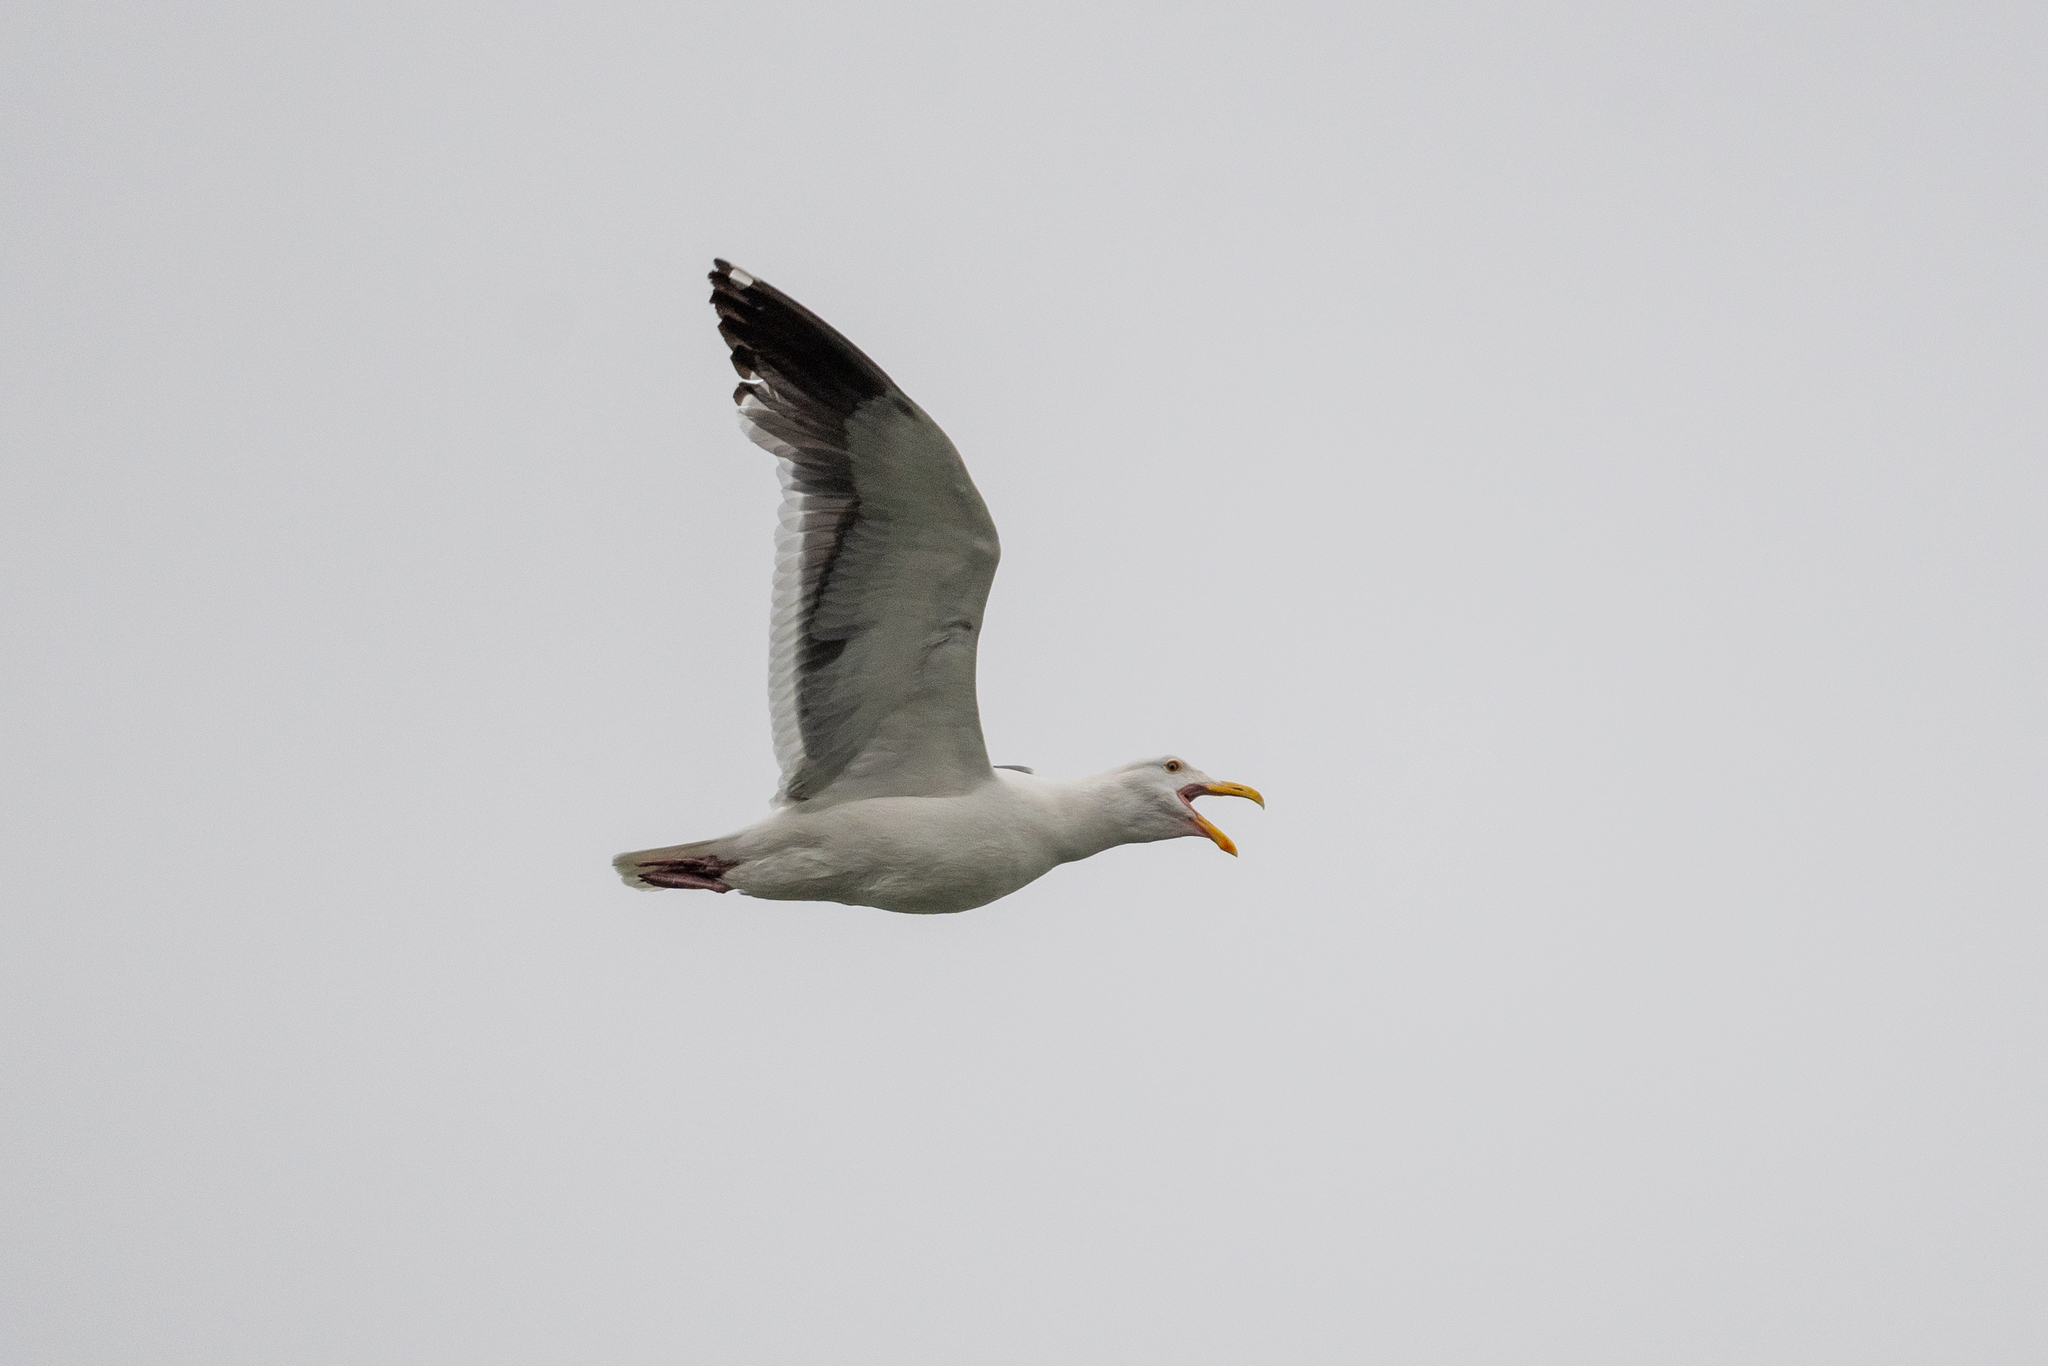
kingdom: Animalia
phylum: Chordata
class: Aves
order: Charadriiformes
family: Laridae
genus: Larus
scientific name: Larus occidentalis
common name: Western gull
